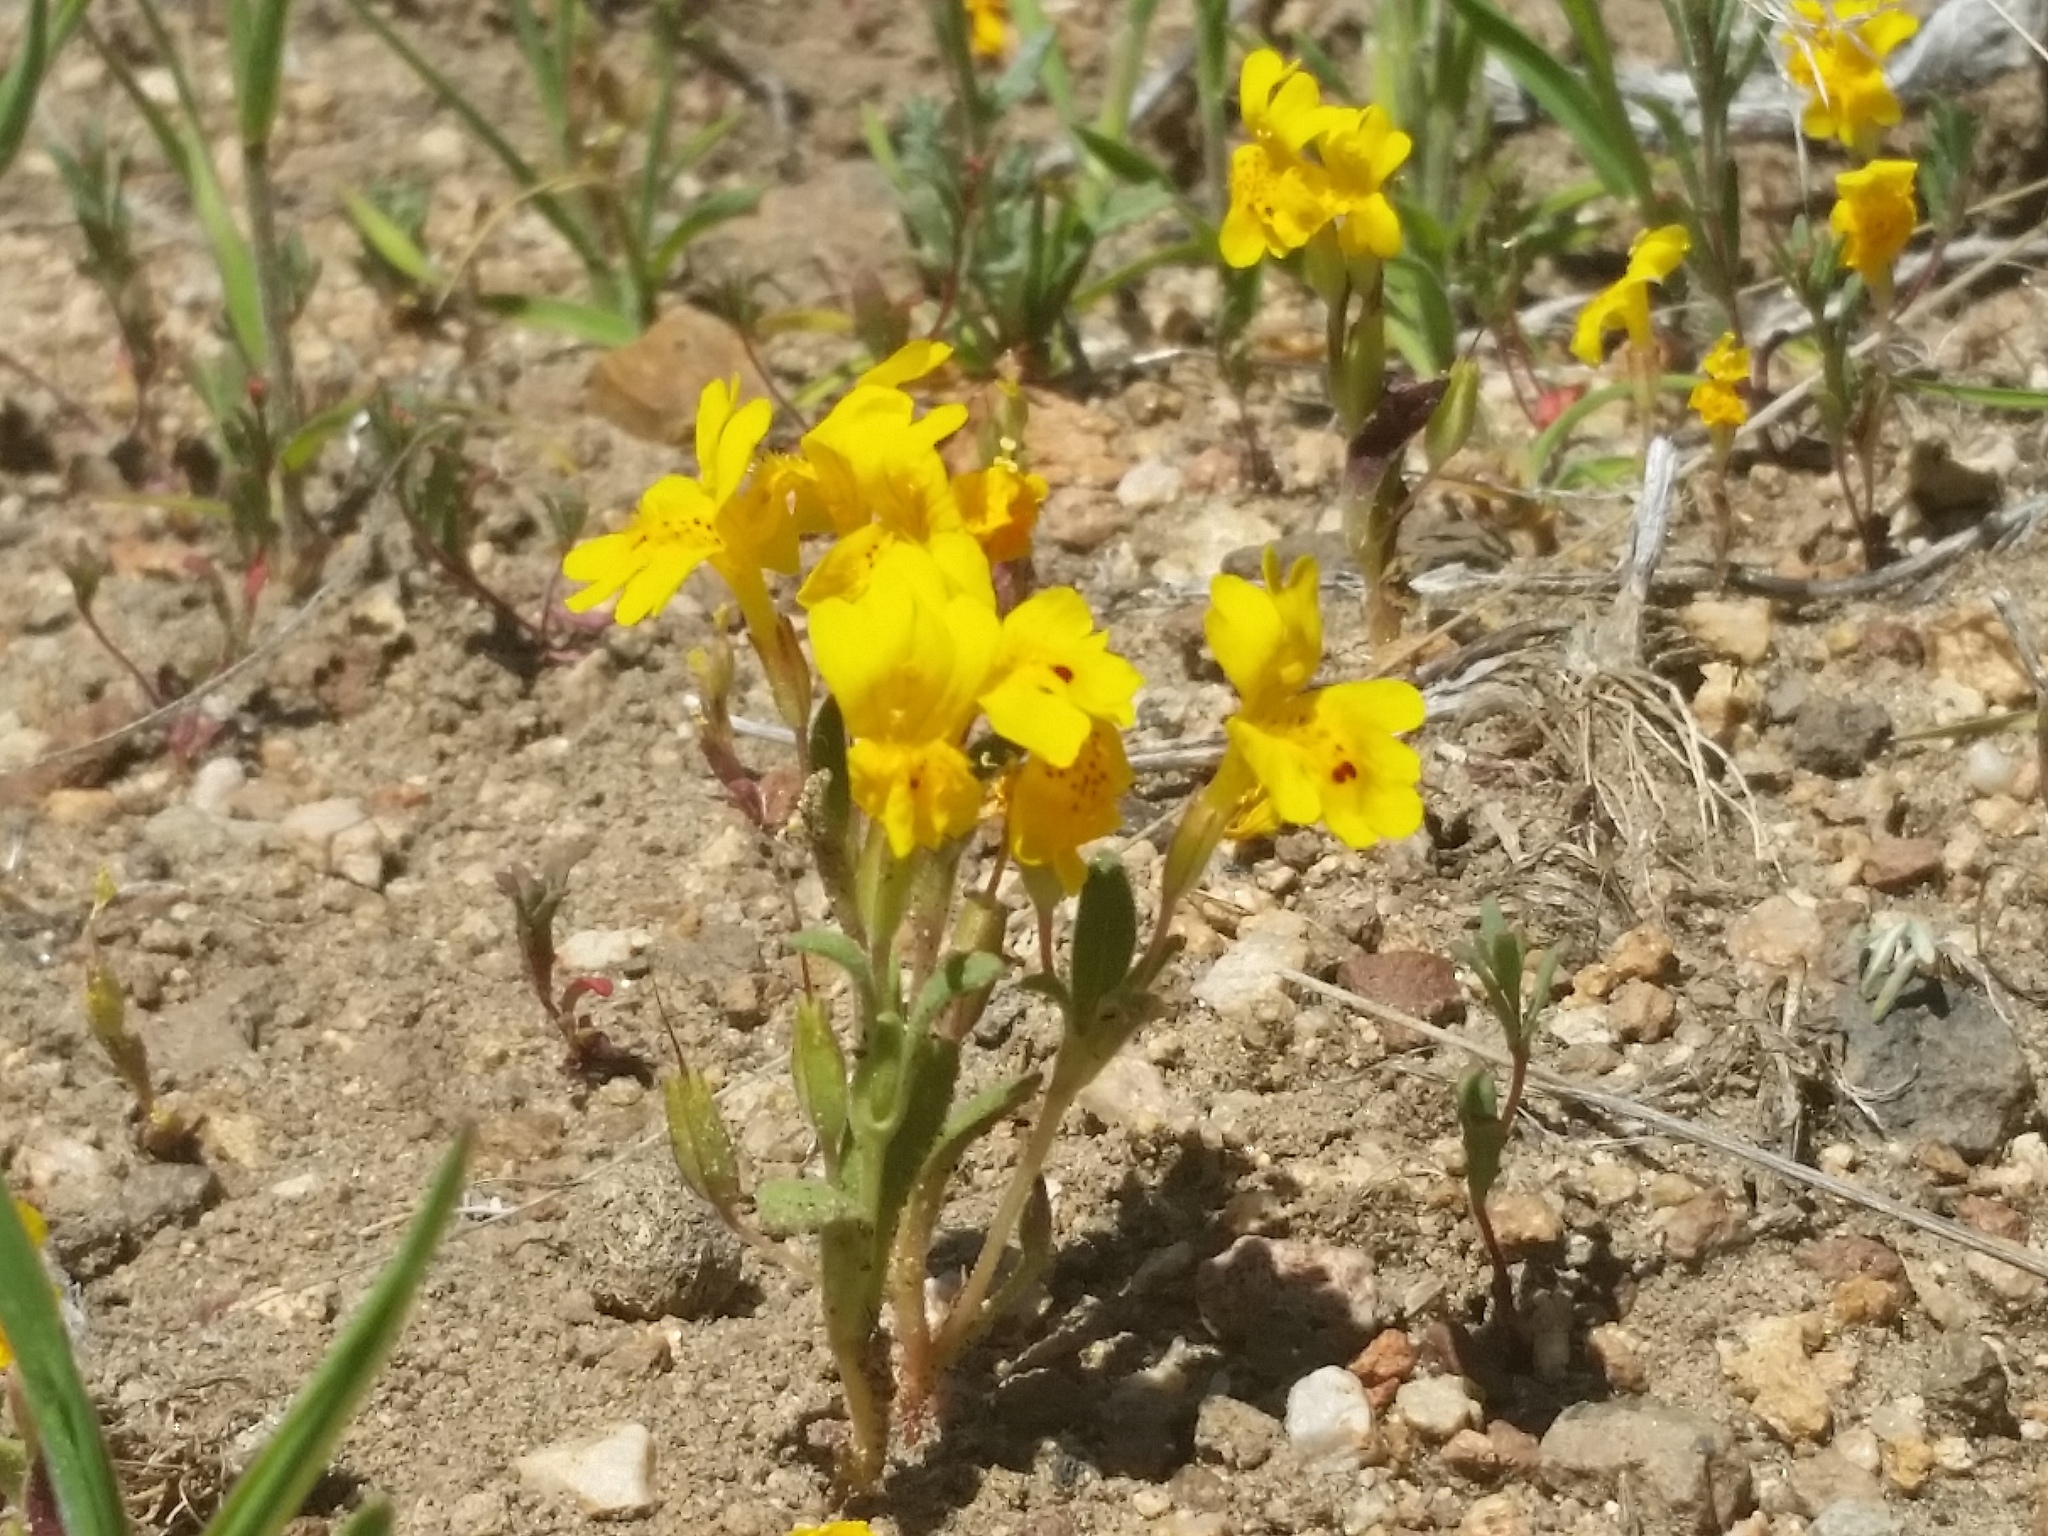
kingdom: Plantae
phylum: Tracheophyta
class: Magnoliopsida
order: Lamiales
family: Phrymaceae
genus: Erythranthe
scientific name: Erythranthe carsonensis
